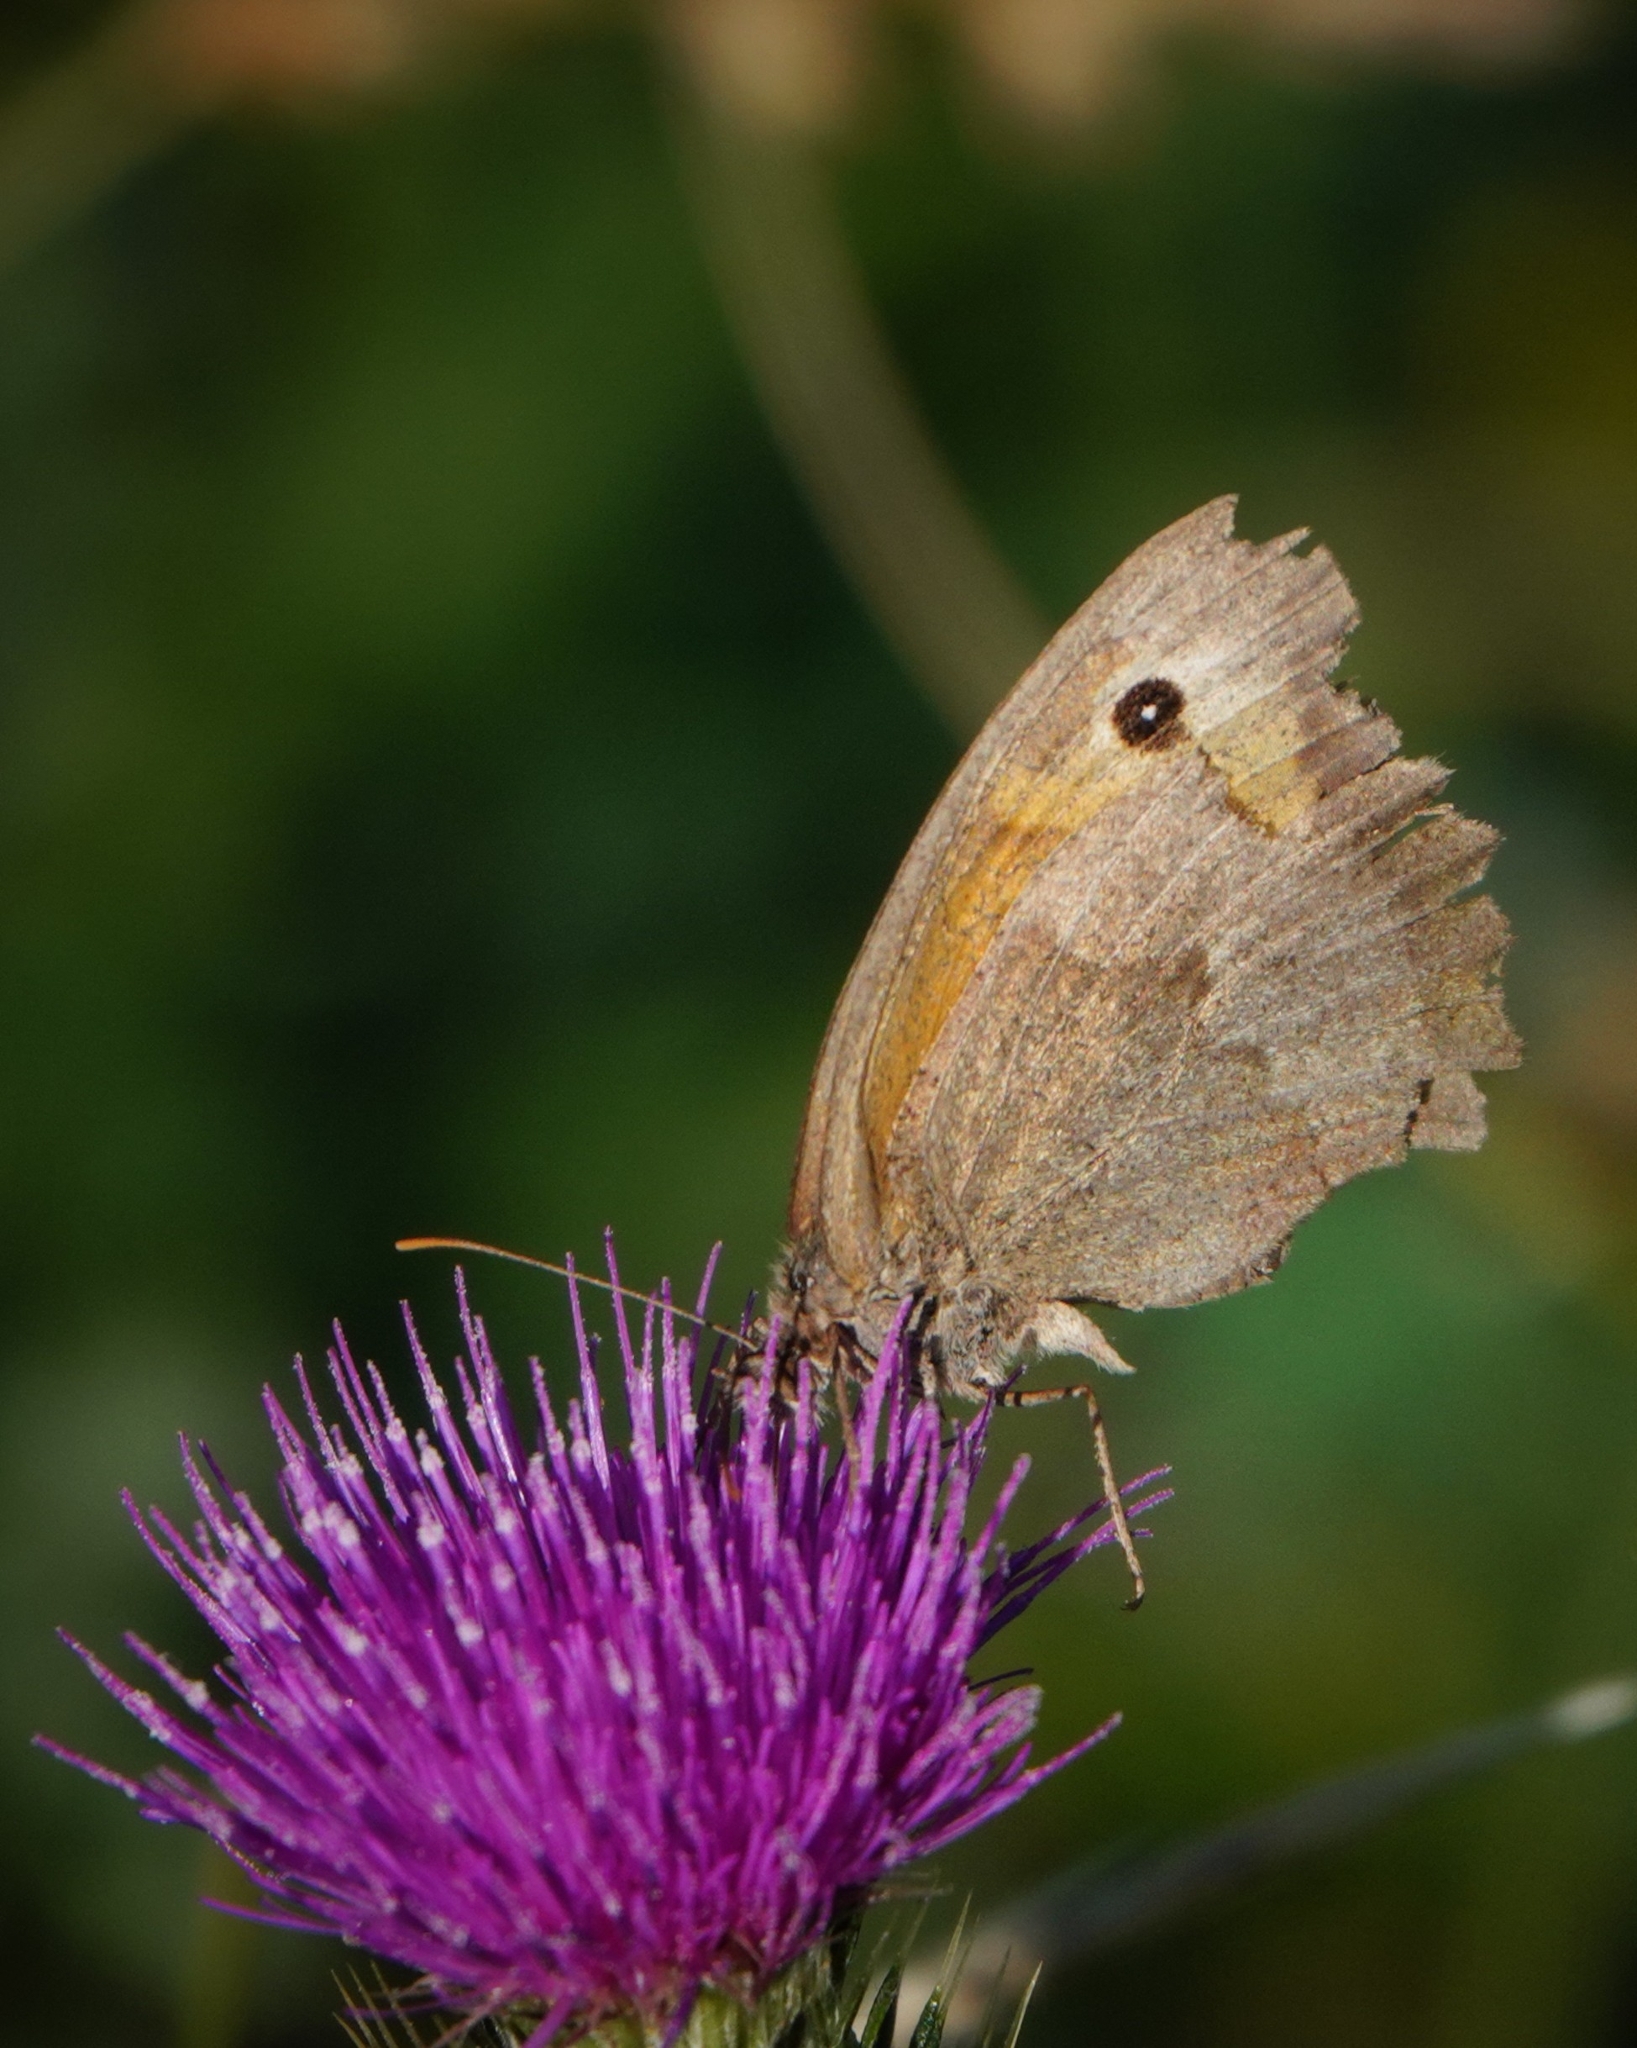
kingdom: Animalia
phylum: Arthropoda
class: Insecta
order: Lepidoptera
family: Nymphalidae
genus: Maniola
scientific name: Maniola jurtina
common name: Meadow brown
